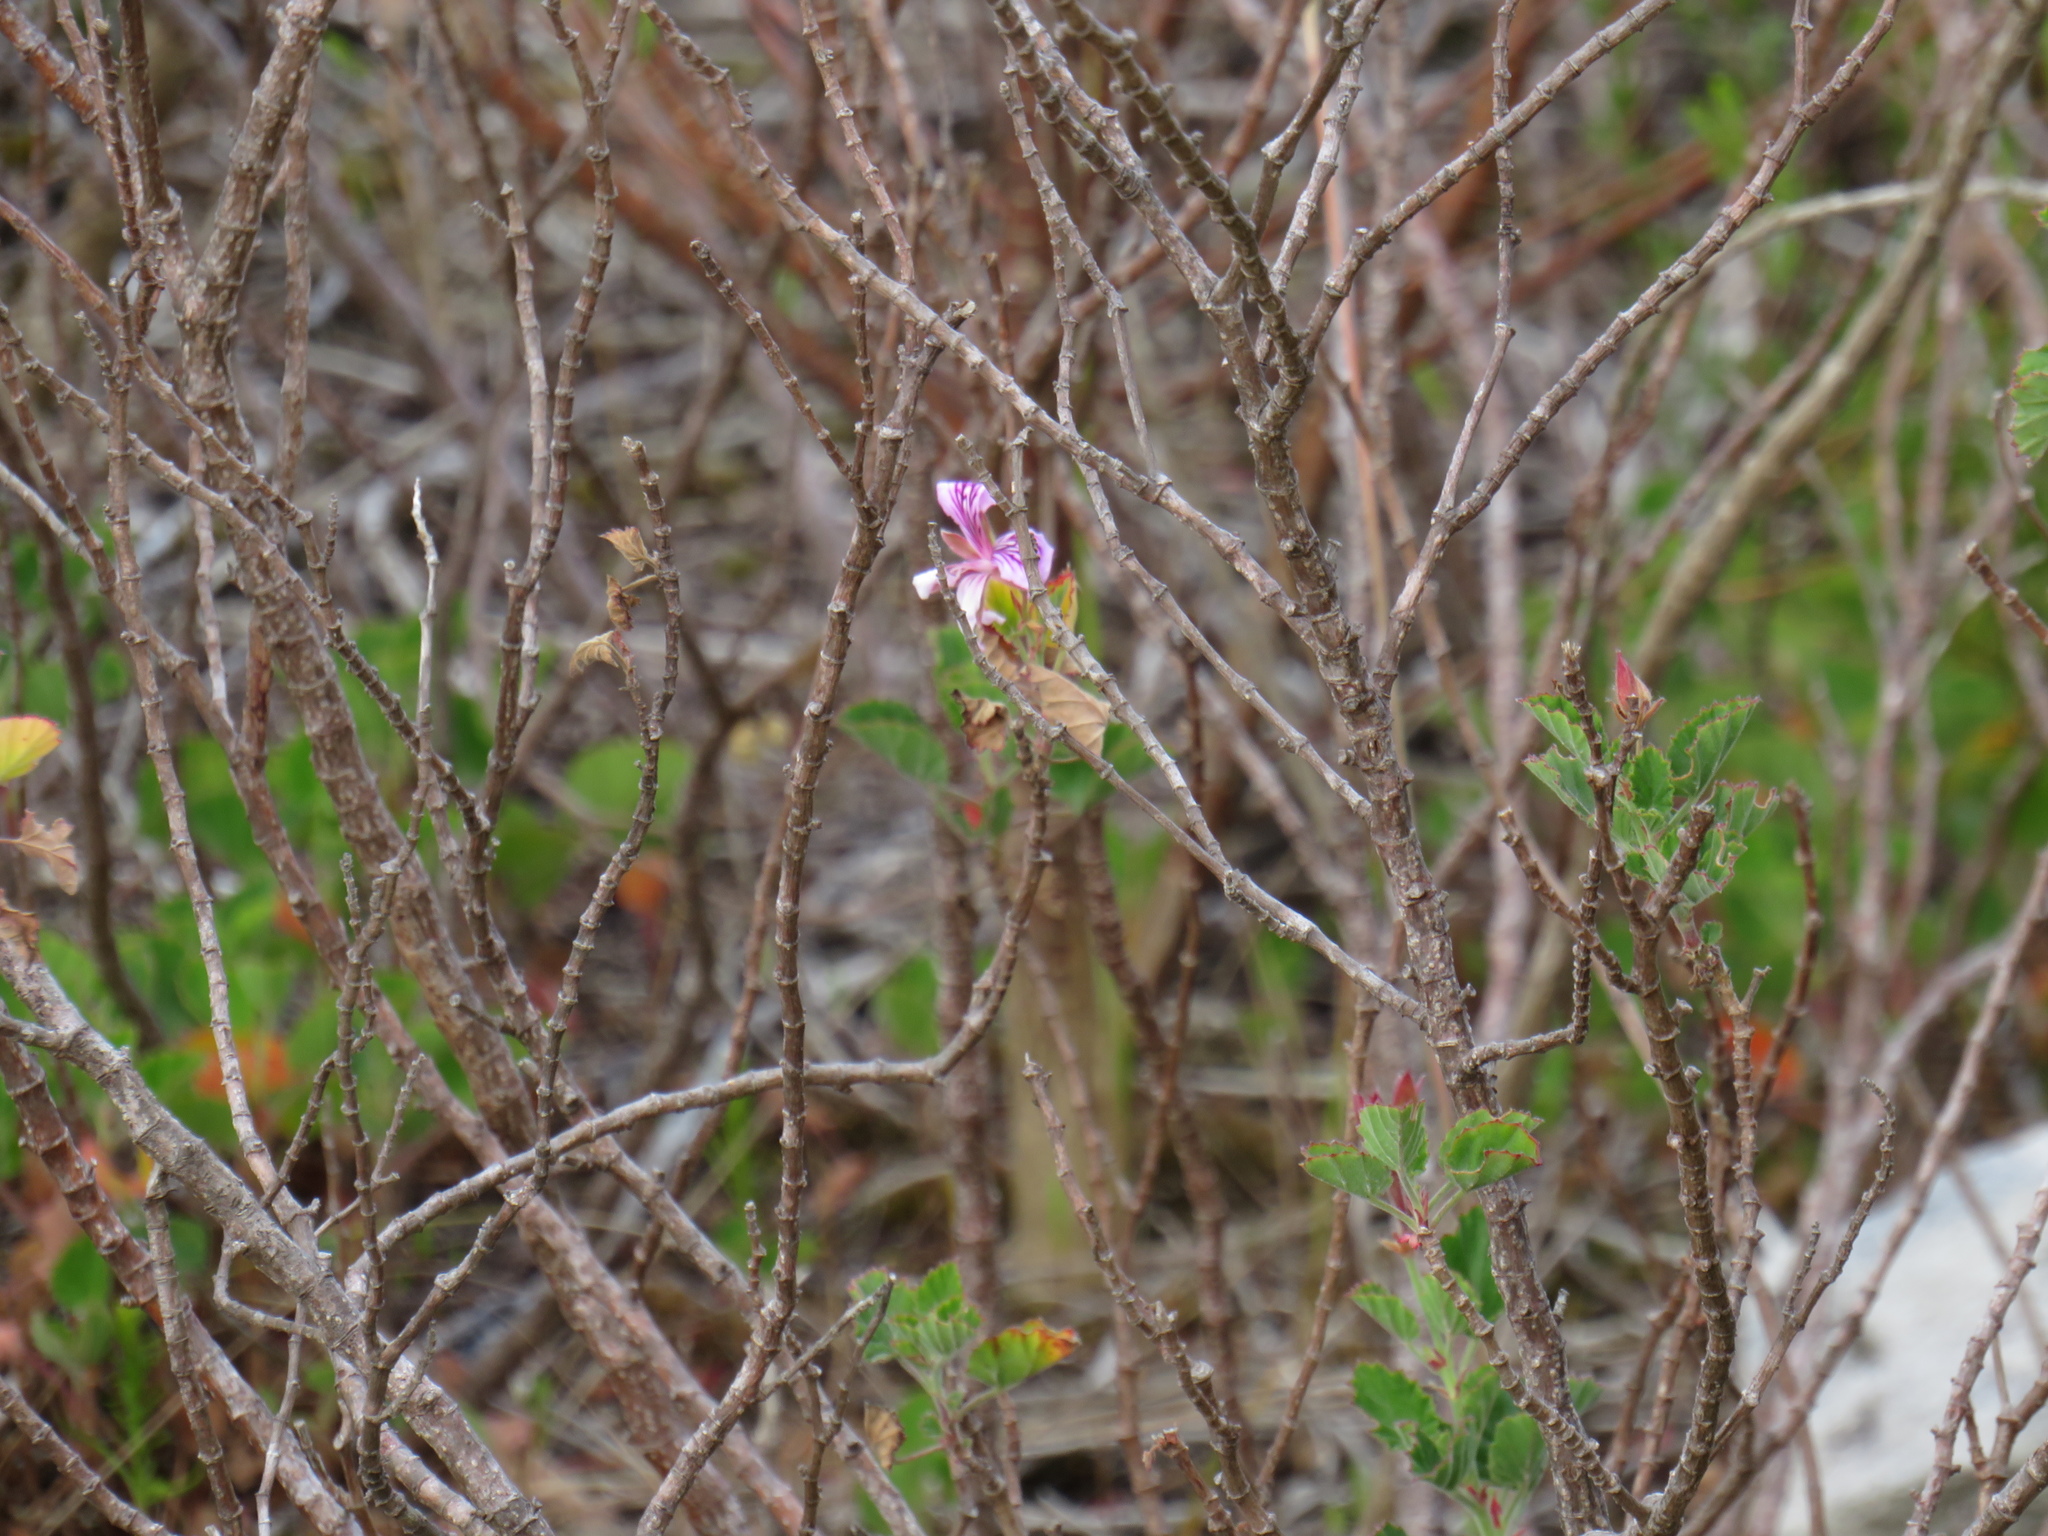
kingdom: Plantae
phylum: Tracheophyta
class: Magnoliopsida
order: Geraniales
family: Geraniaceae
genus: Pelargonium
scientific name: Pelargonium betulinum
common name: Birch-leaf pelargonium
